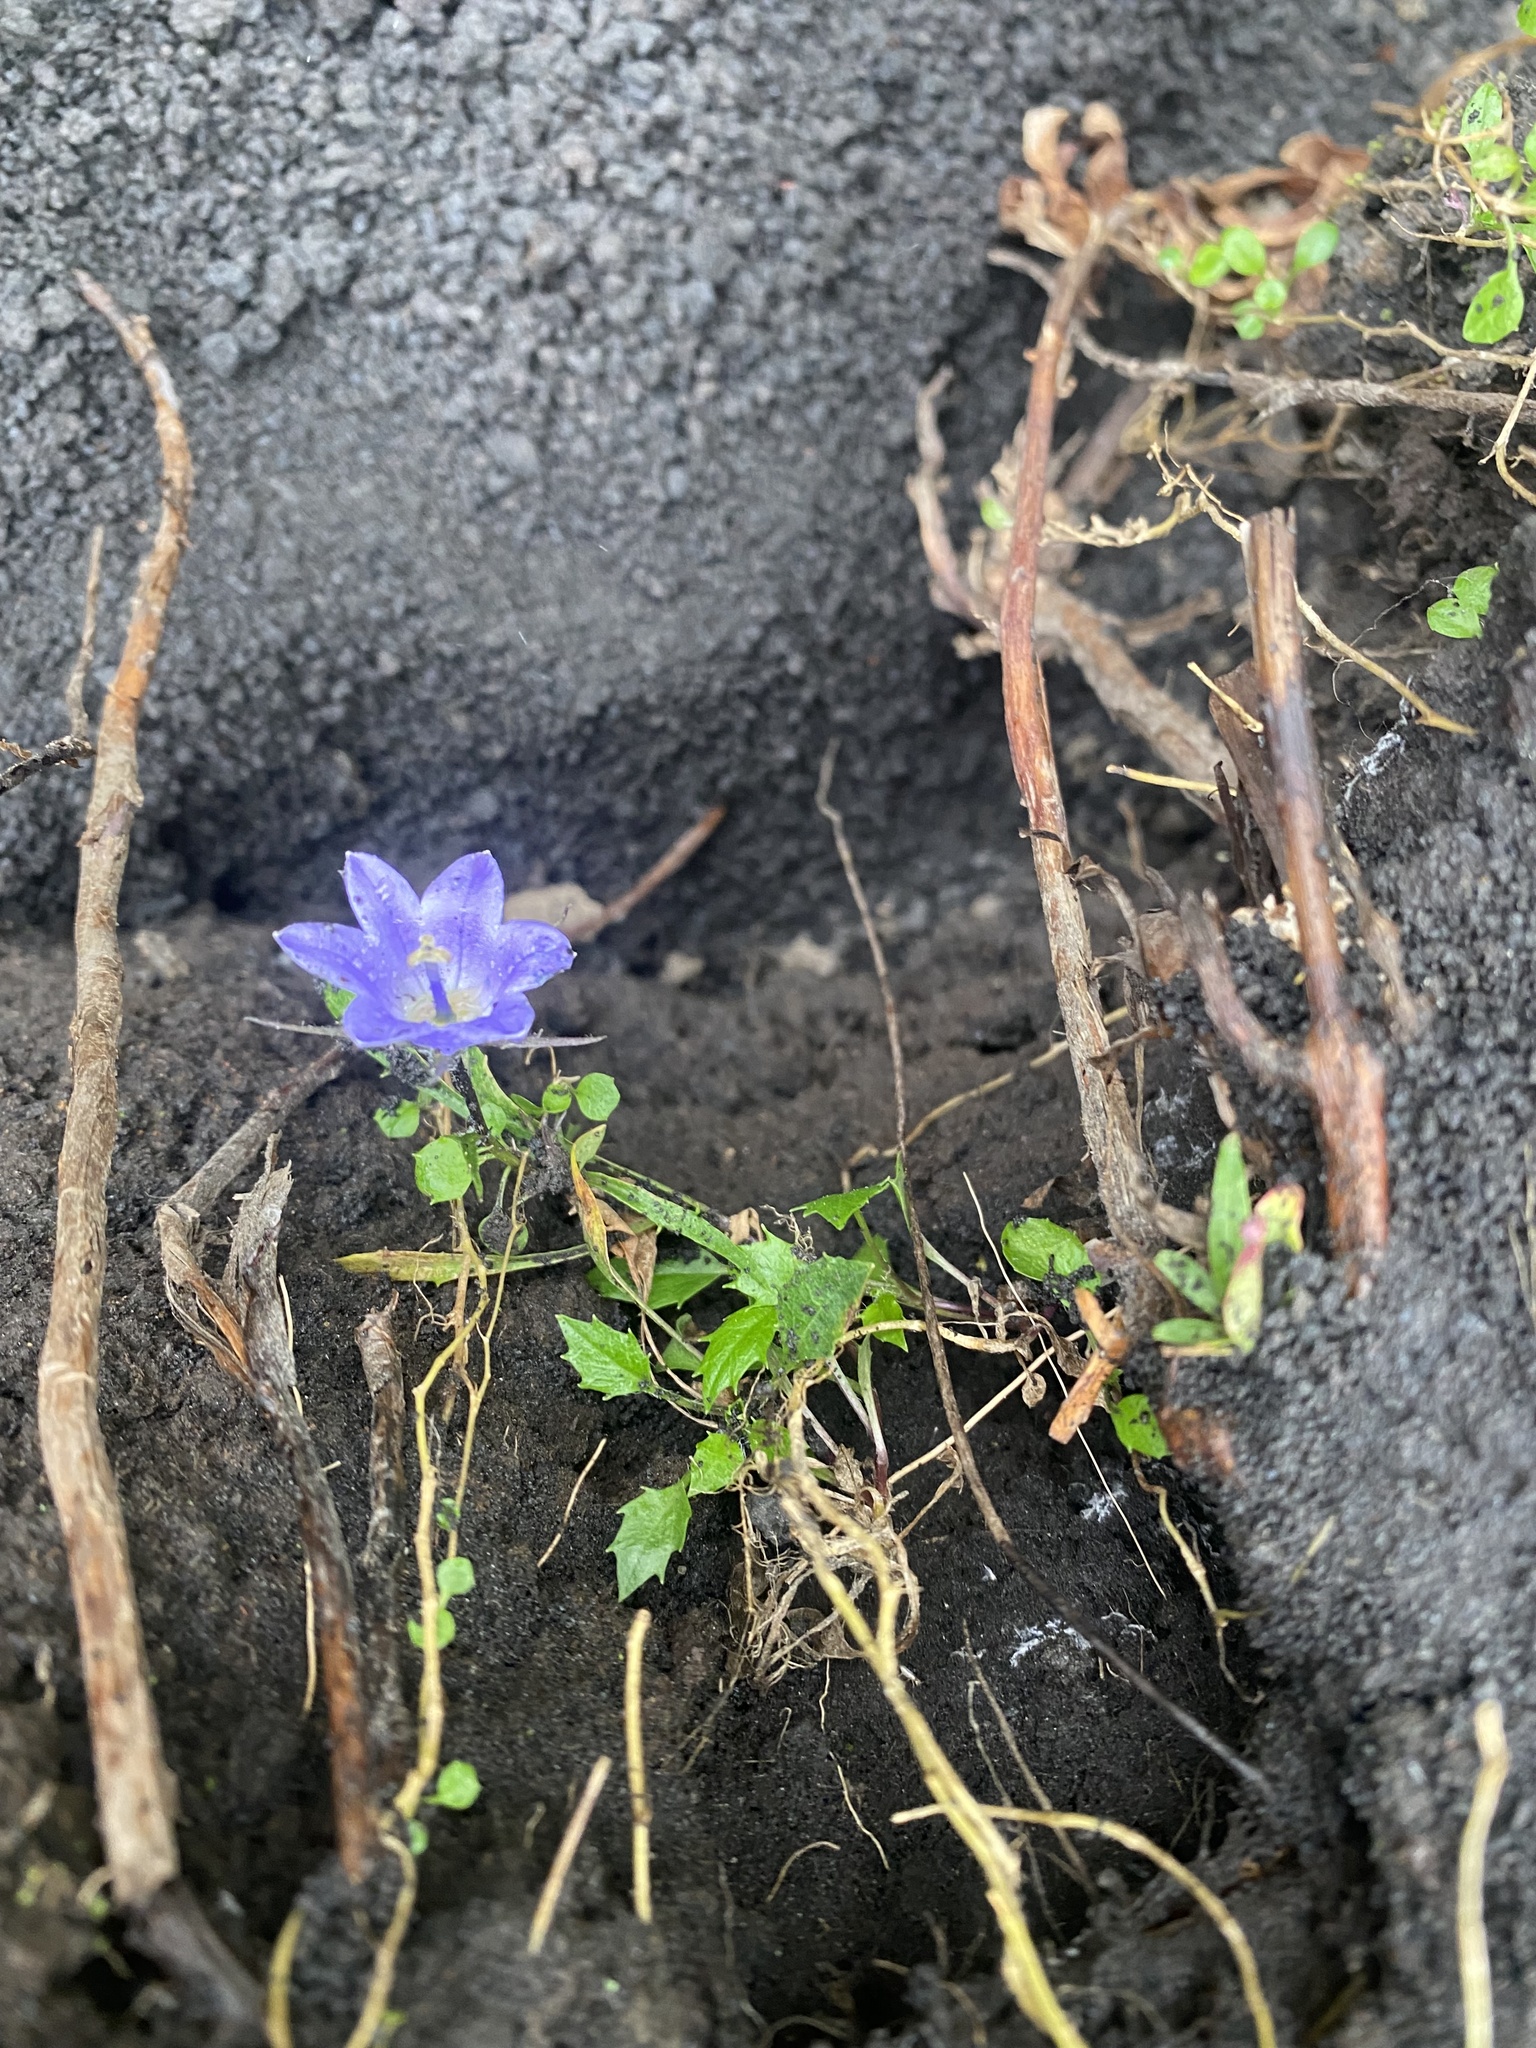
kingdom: Plantae
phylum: Tracheophyta
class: Magnoliopsida
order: Asterales
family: Campanulaceae
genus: Campanula
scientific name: Campanula lasiocarpa
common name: Mountain harebell
